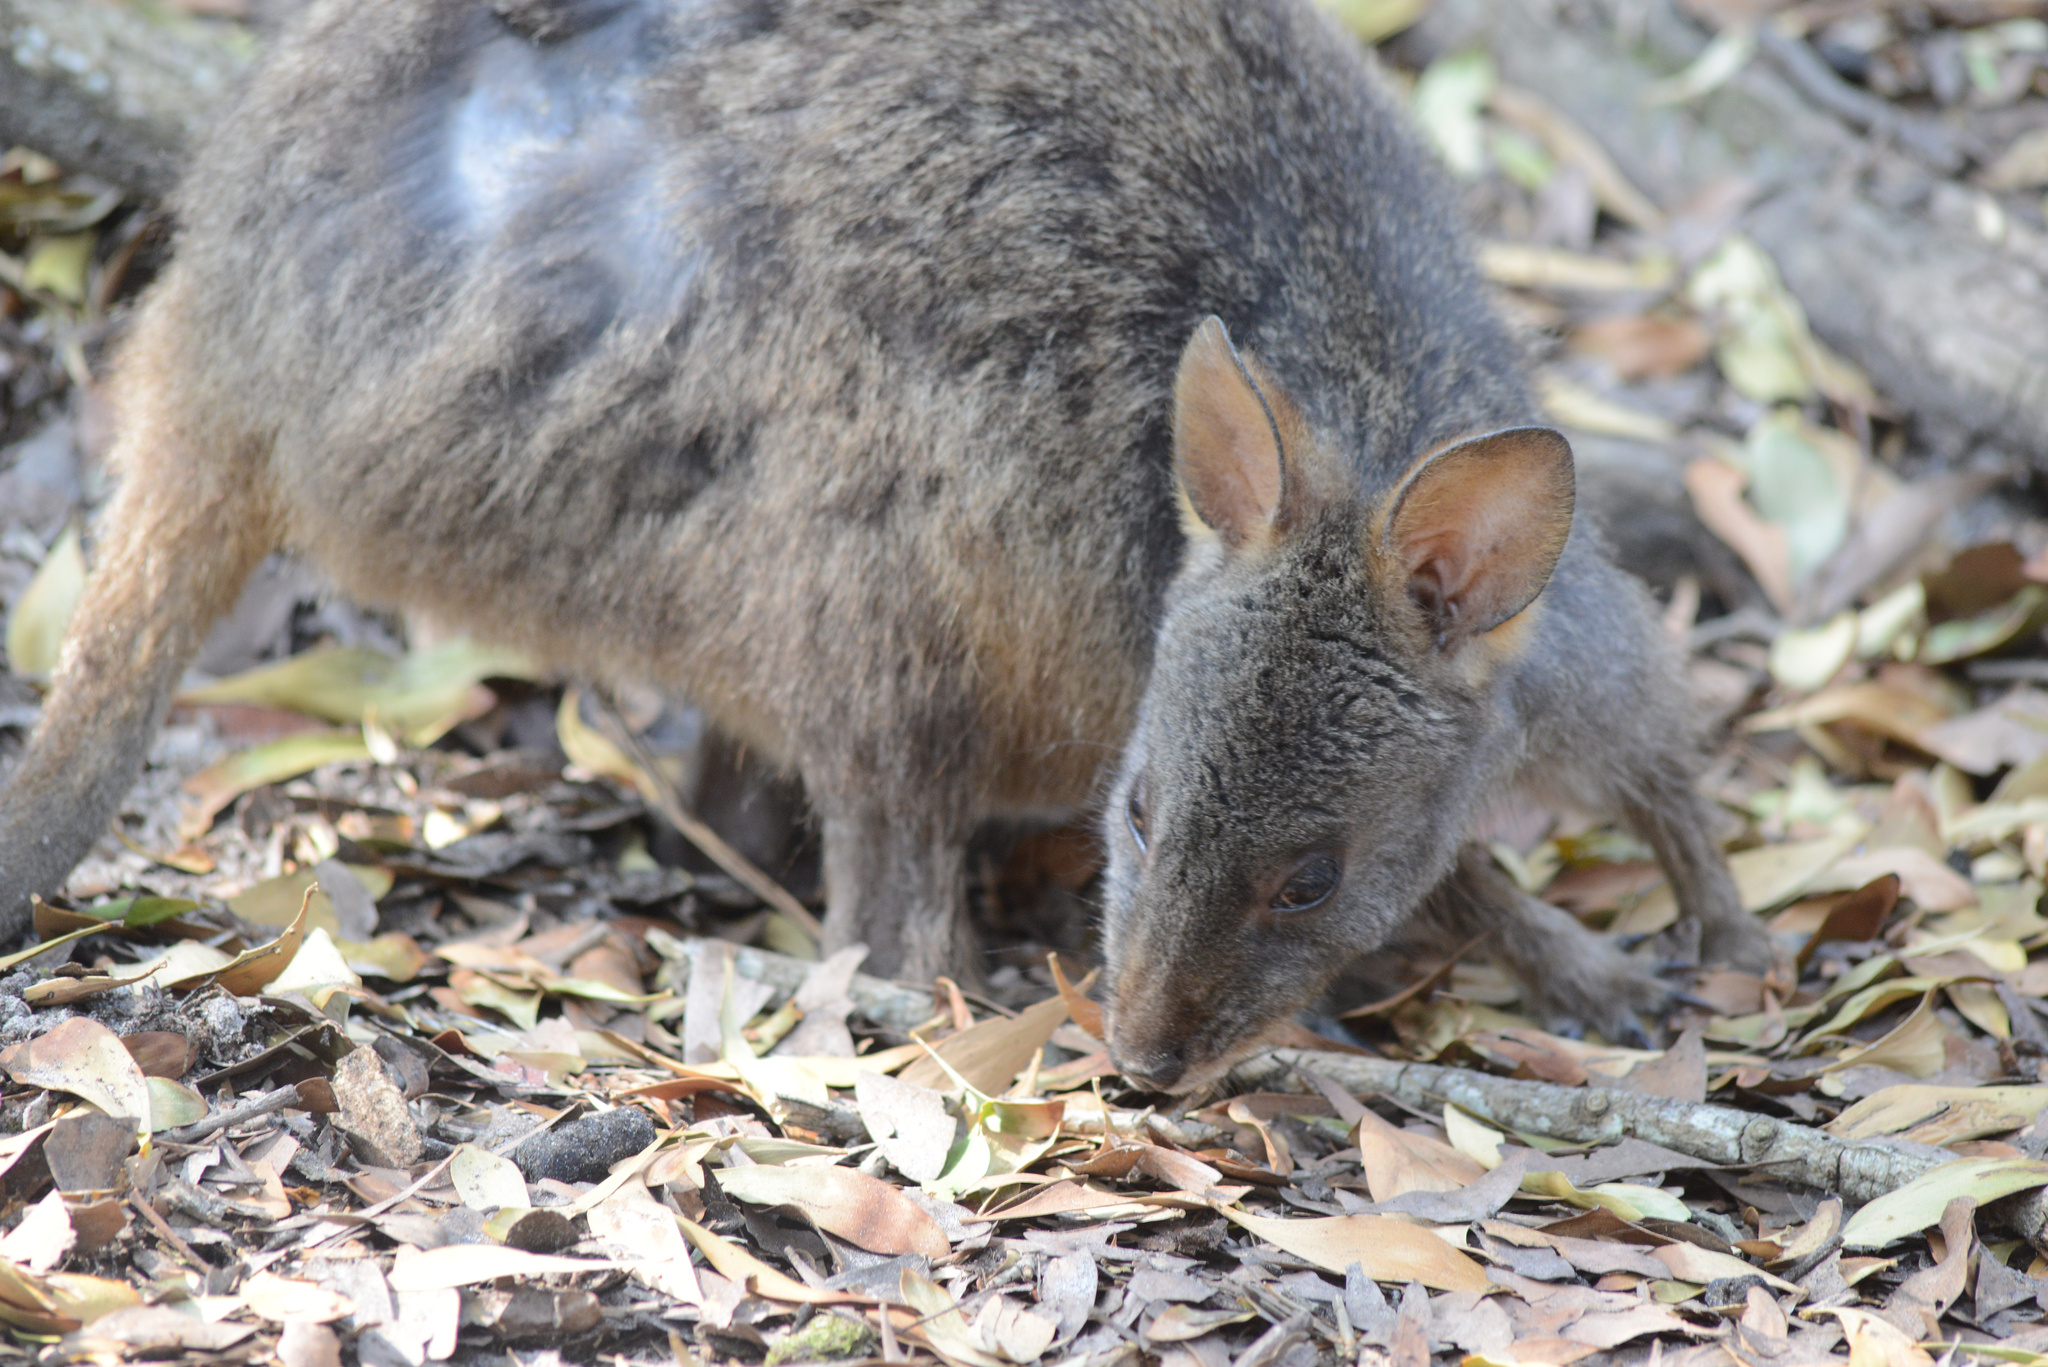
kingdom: Animalia
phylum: Chordata
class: Mammalia
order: Diprotodontia
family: Macropodidae
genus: Thylogale
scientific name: Thylogale billardierii
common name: Tasmanian pademelon
